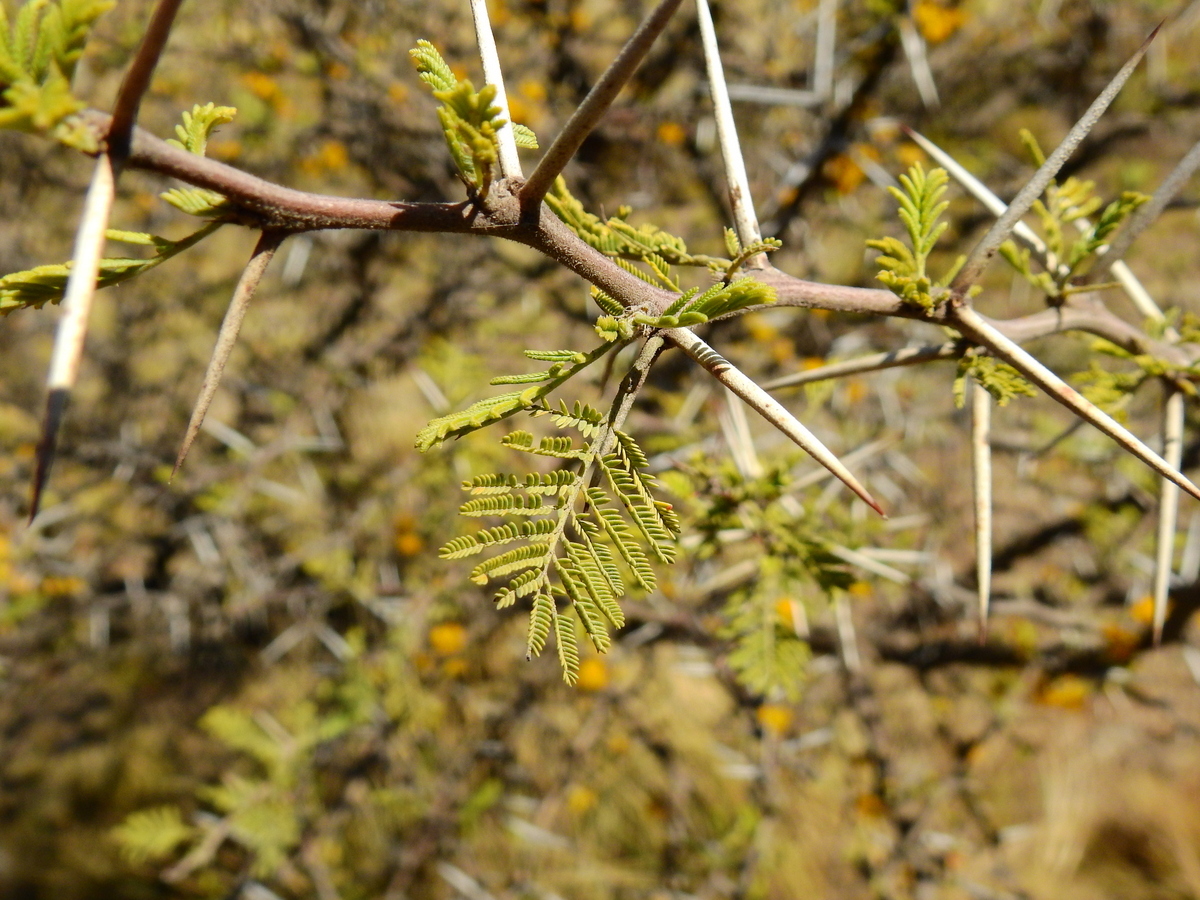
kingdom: Plantae
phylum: Tracheophyta
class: Magnoliopsida
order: Fabales
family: Fabaceae
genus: Vachellia
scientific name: Vachellia caven
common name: Roman cassie
